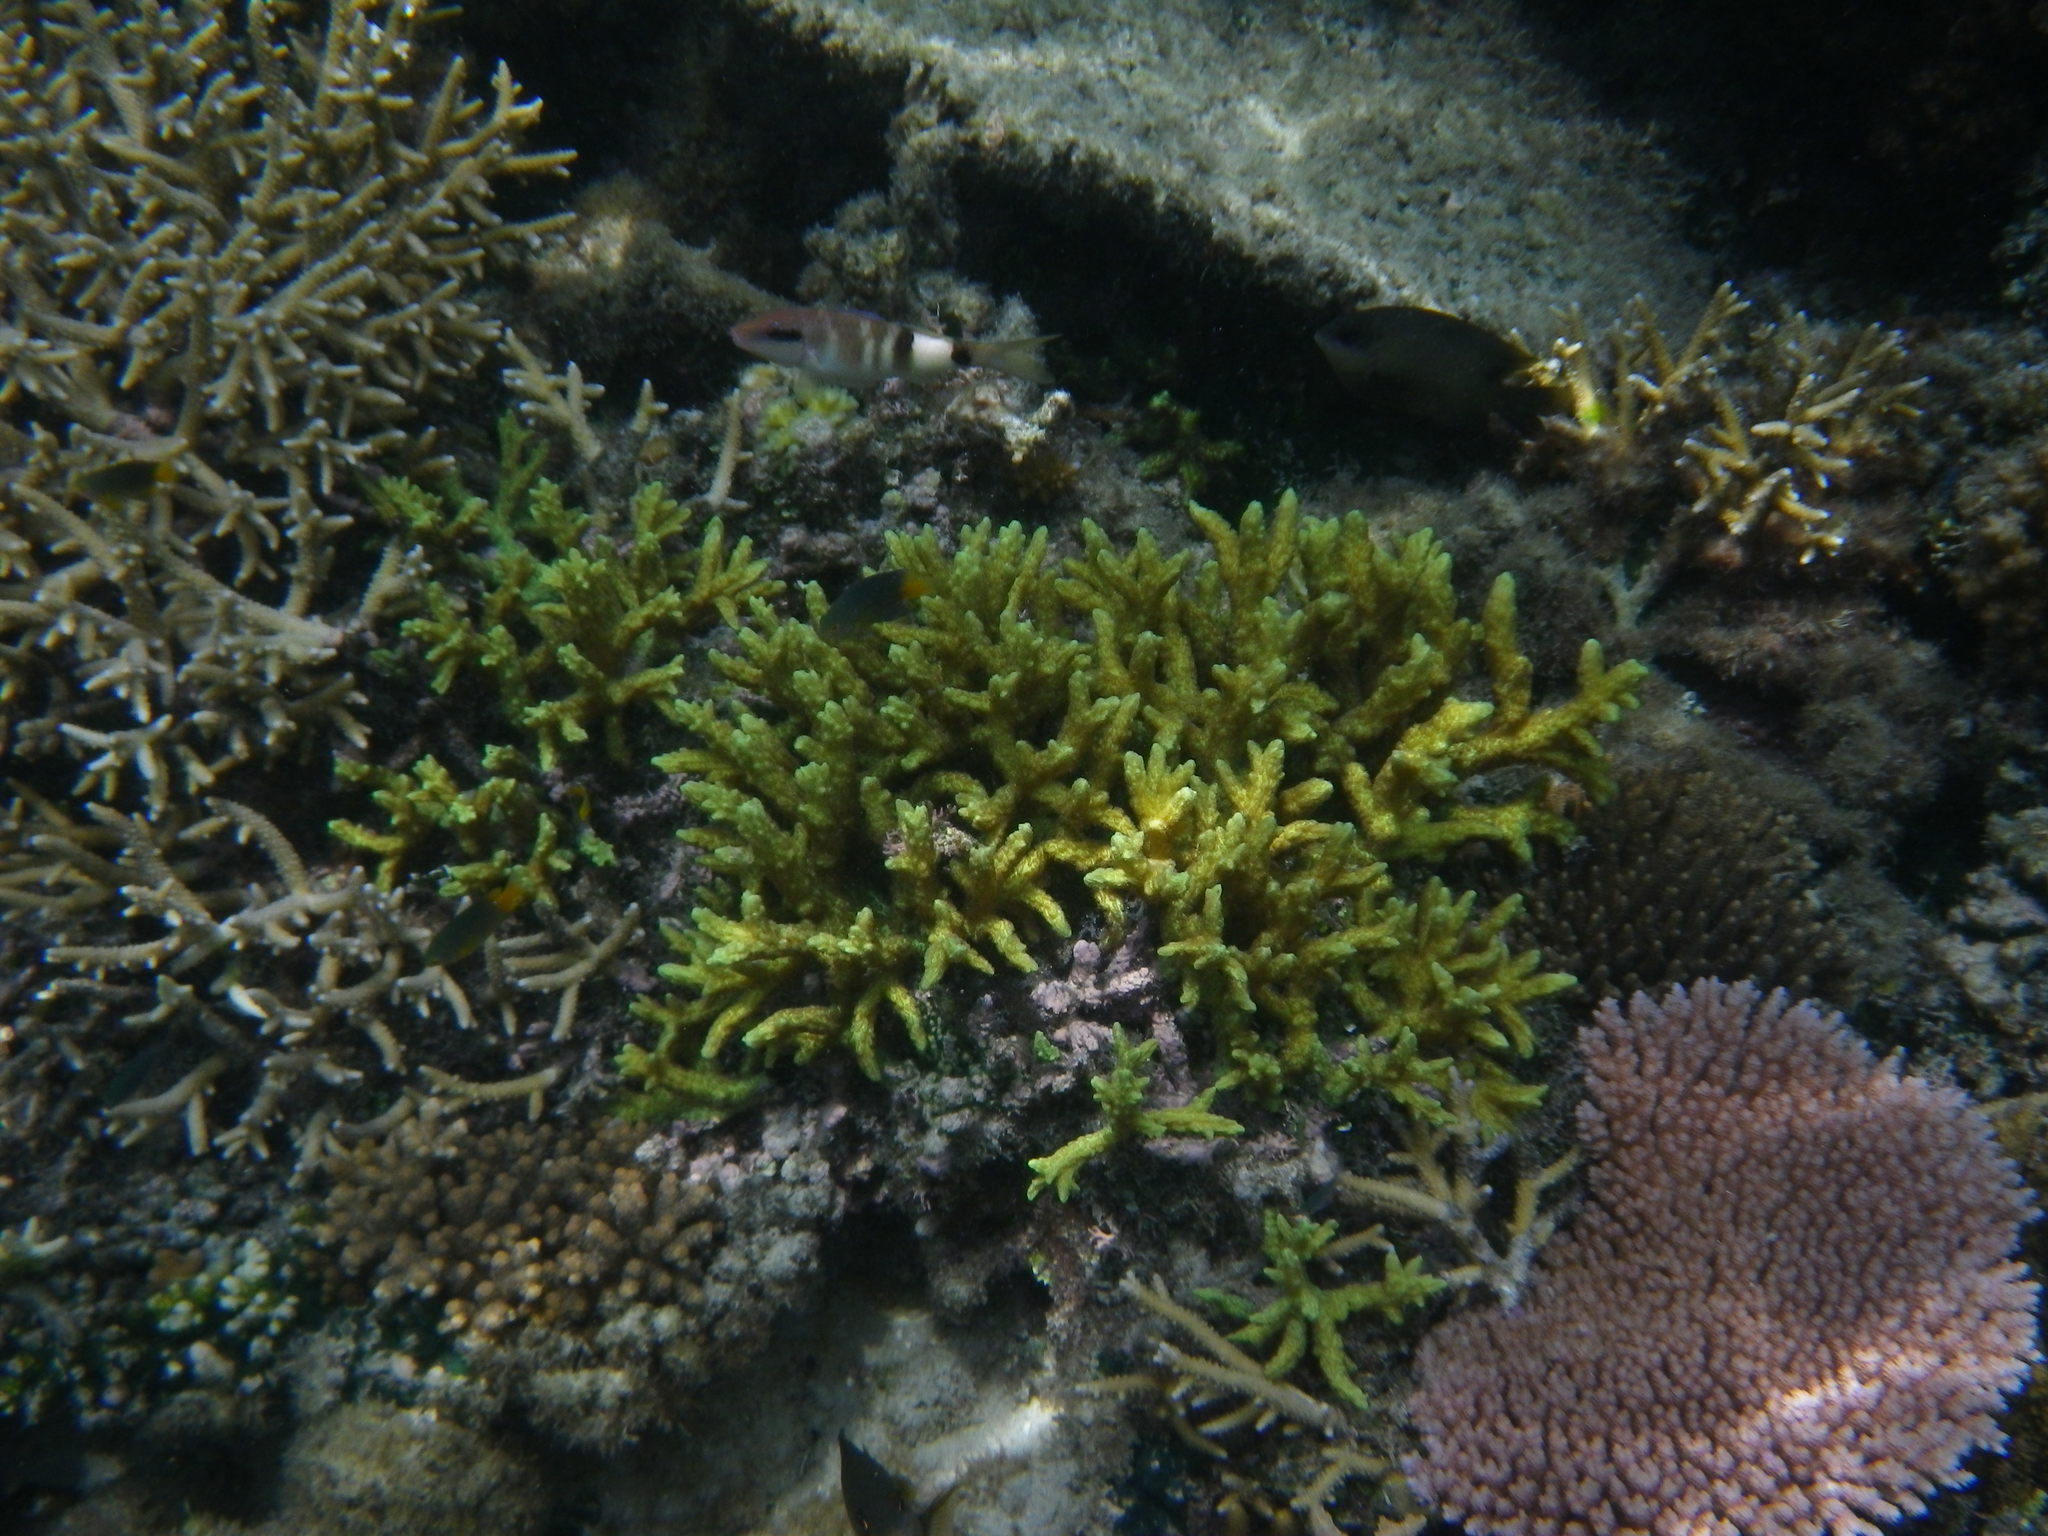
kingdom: Animalia
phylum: Cnidaria
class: Anthozoa
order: Scleractinia
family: Merulinidae
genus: Hydnophora
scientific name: Hydnophora rigida
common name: Spine coral
